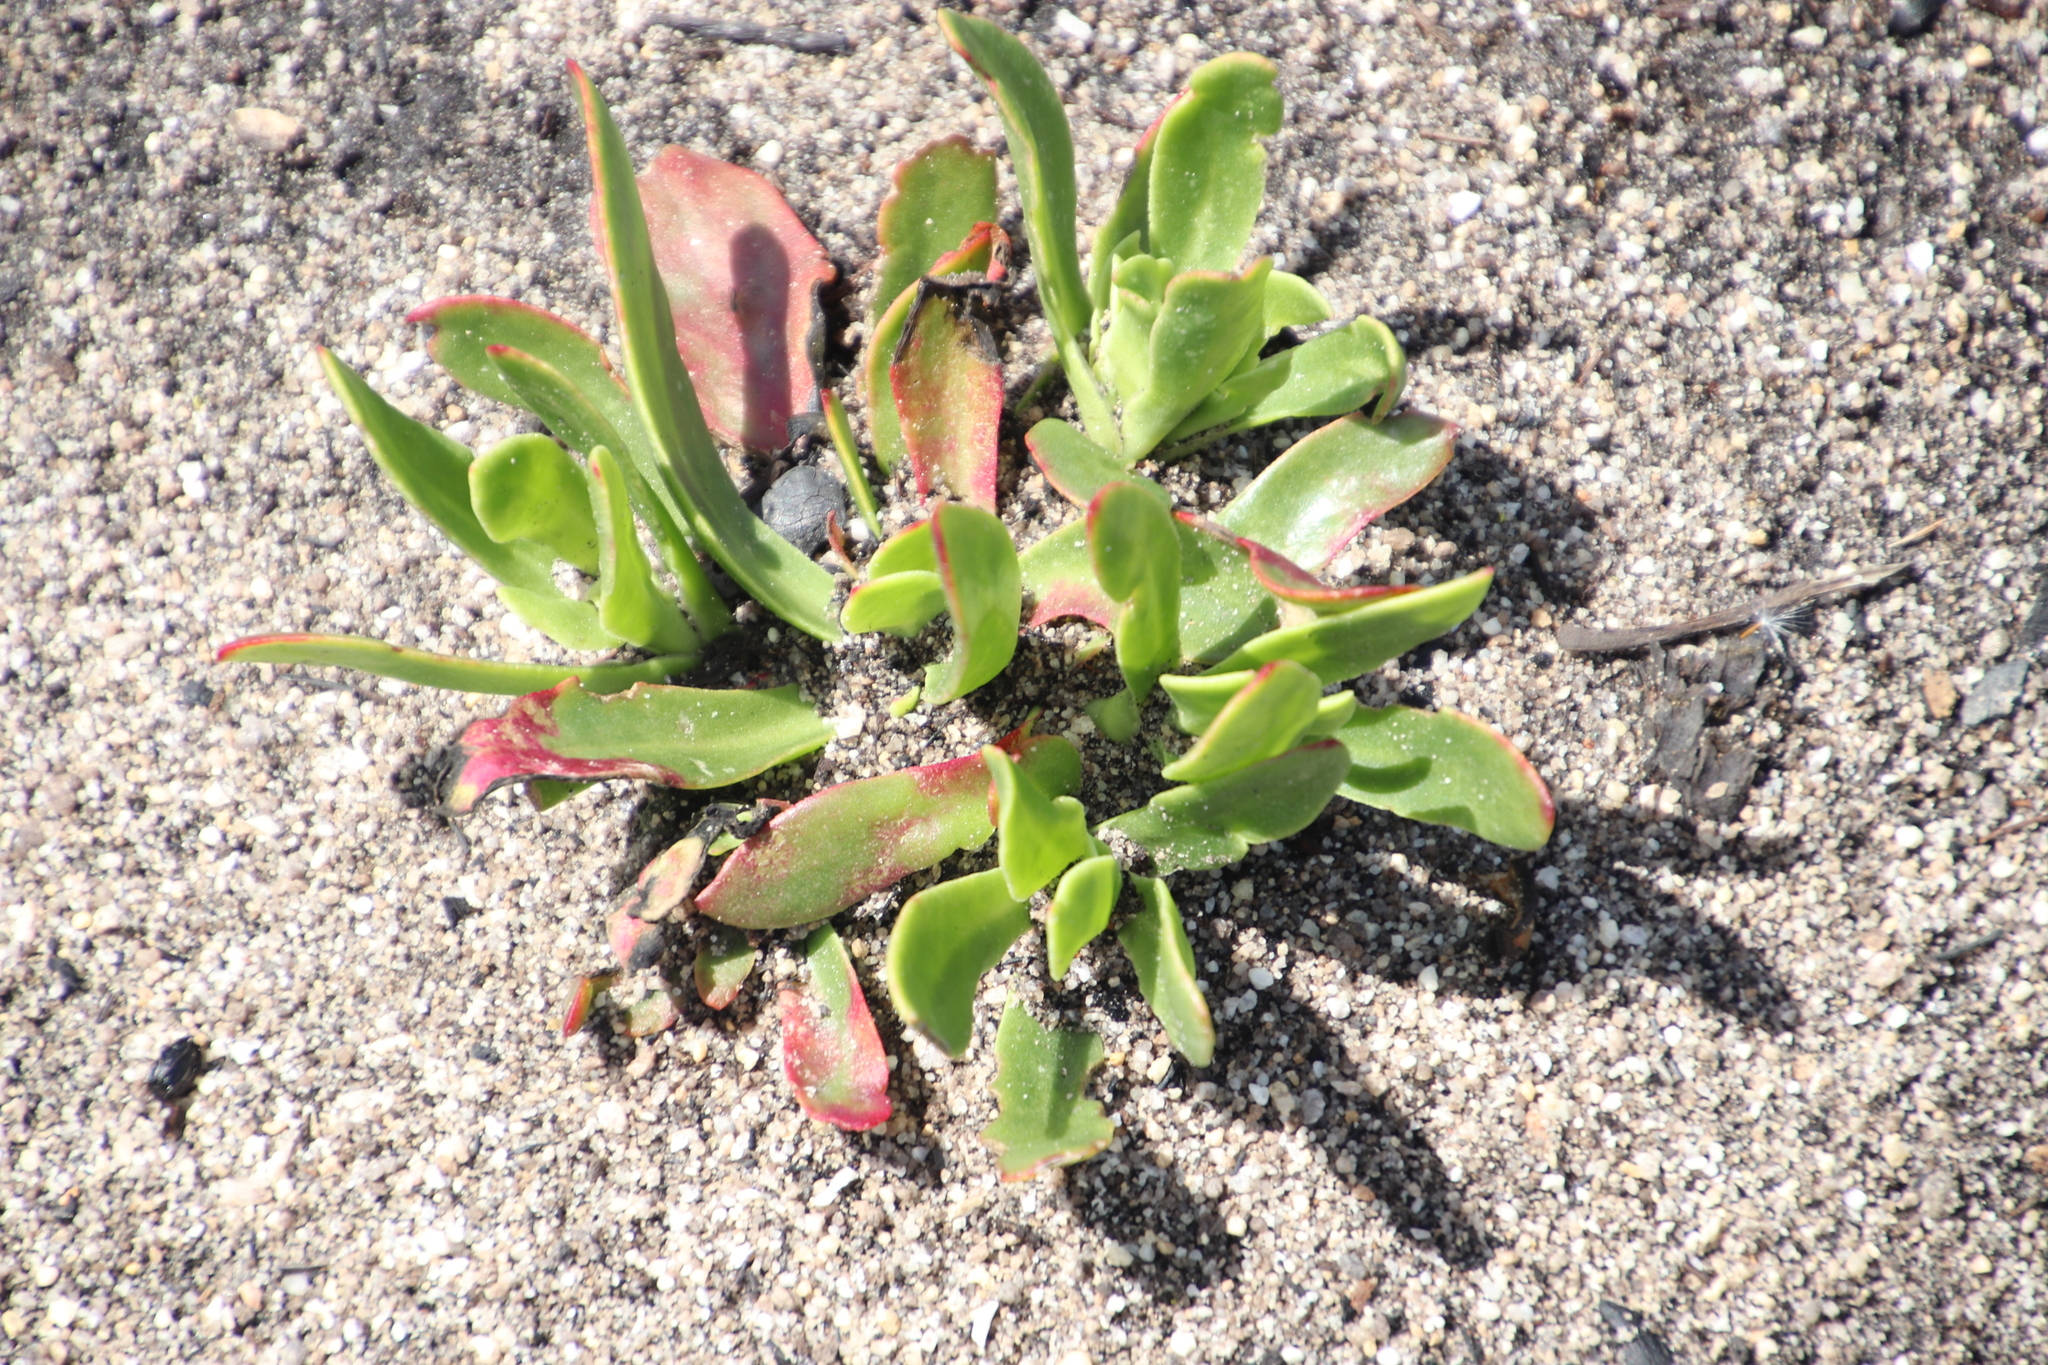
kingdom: Plantae
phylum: Tracheophyta
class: Magnoliopsida
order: Caryophyllales
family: Aizoaceae
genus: Skiatophytum
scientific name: Skiatophytum tripolium
